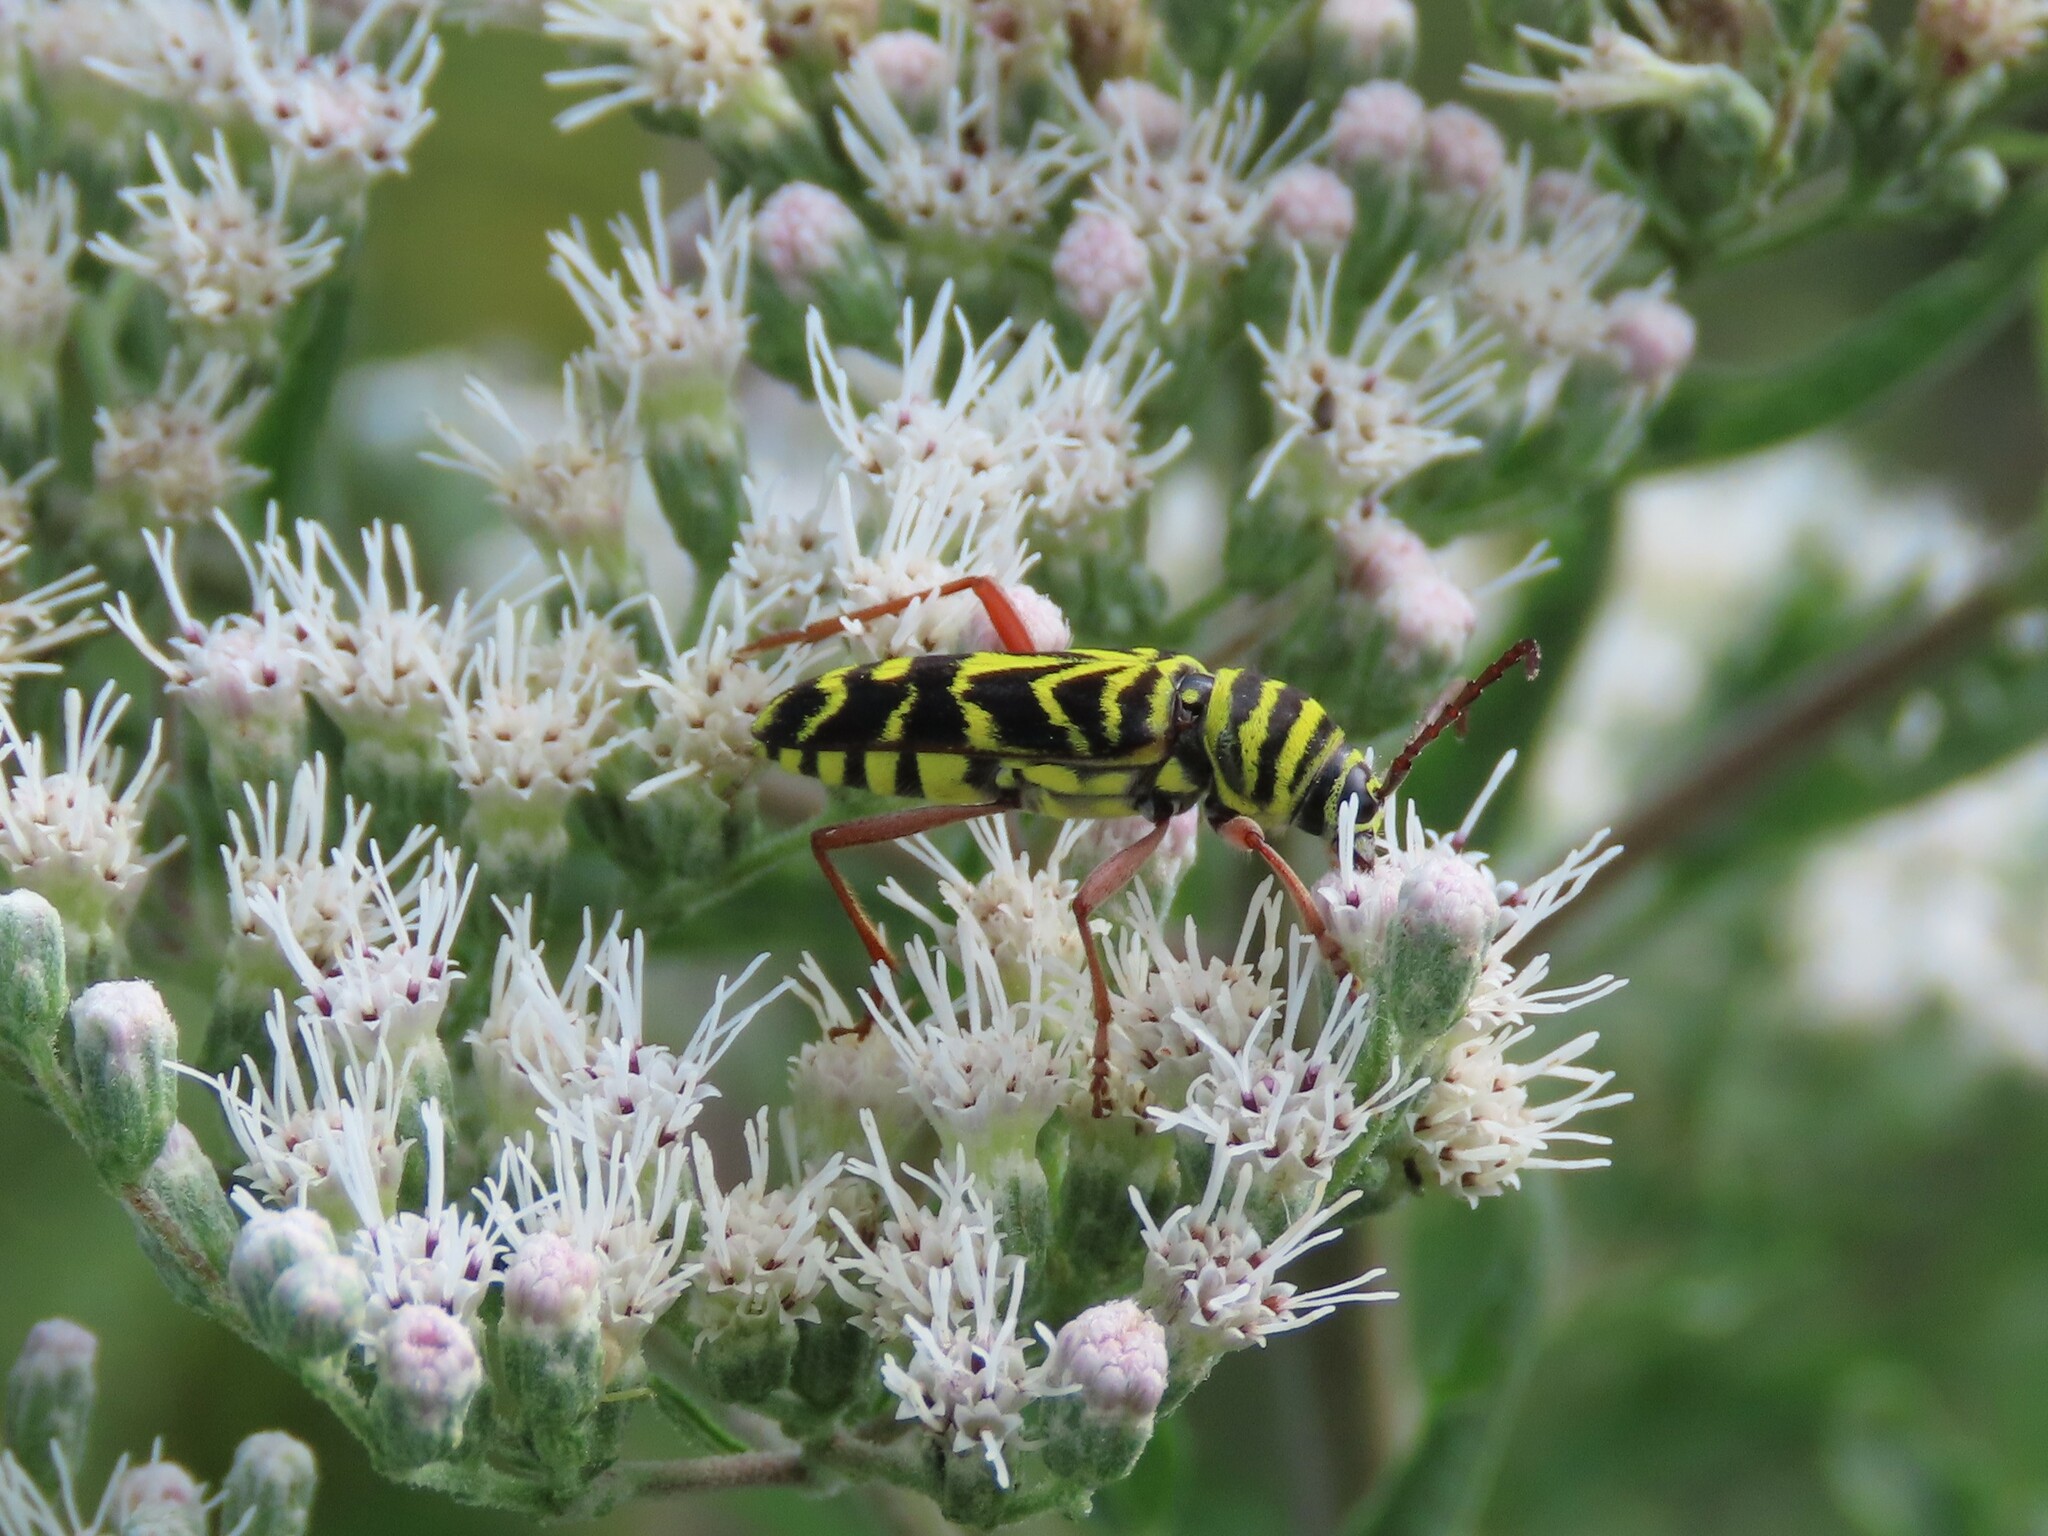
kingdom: Animalia
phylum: Arthropoda
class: Insecta
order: Coleoptera
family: Cerambycidae
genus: Megacyllene
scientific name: Megacyllene robiniae
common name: Locust borer
